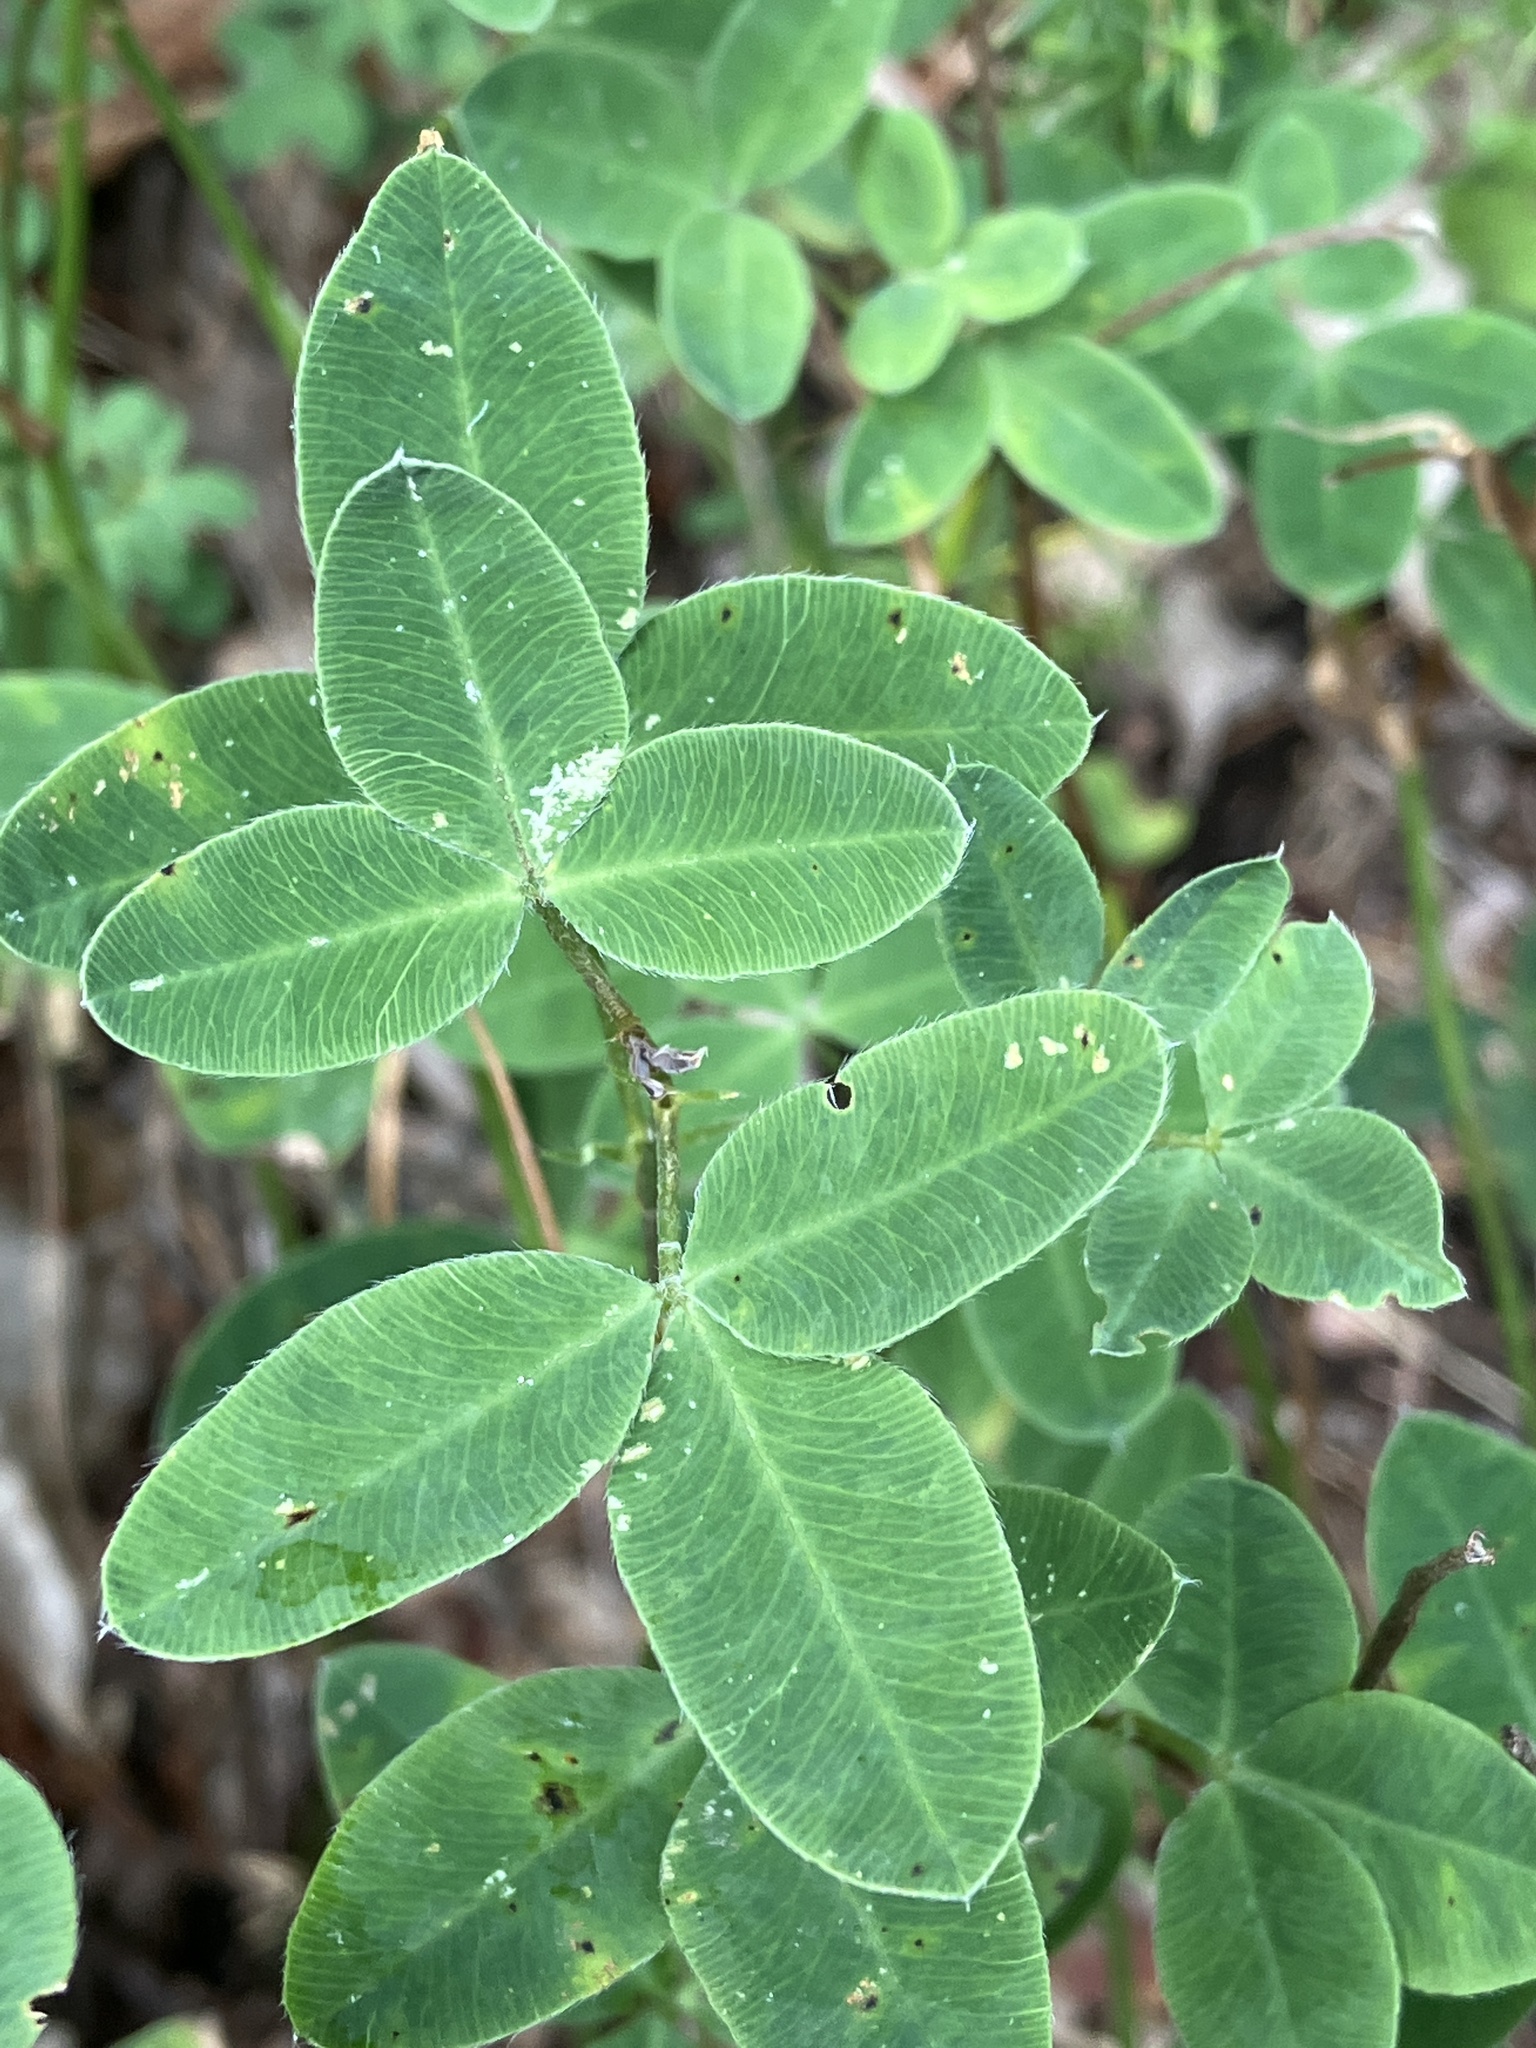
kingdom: Plantae
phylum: Tracheophyta
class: Magnoliopsida
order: Fabales
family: Fabaceae
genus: Chamaecytisus
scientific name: Chamaecytisus hirsutus
